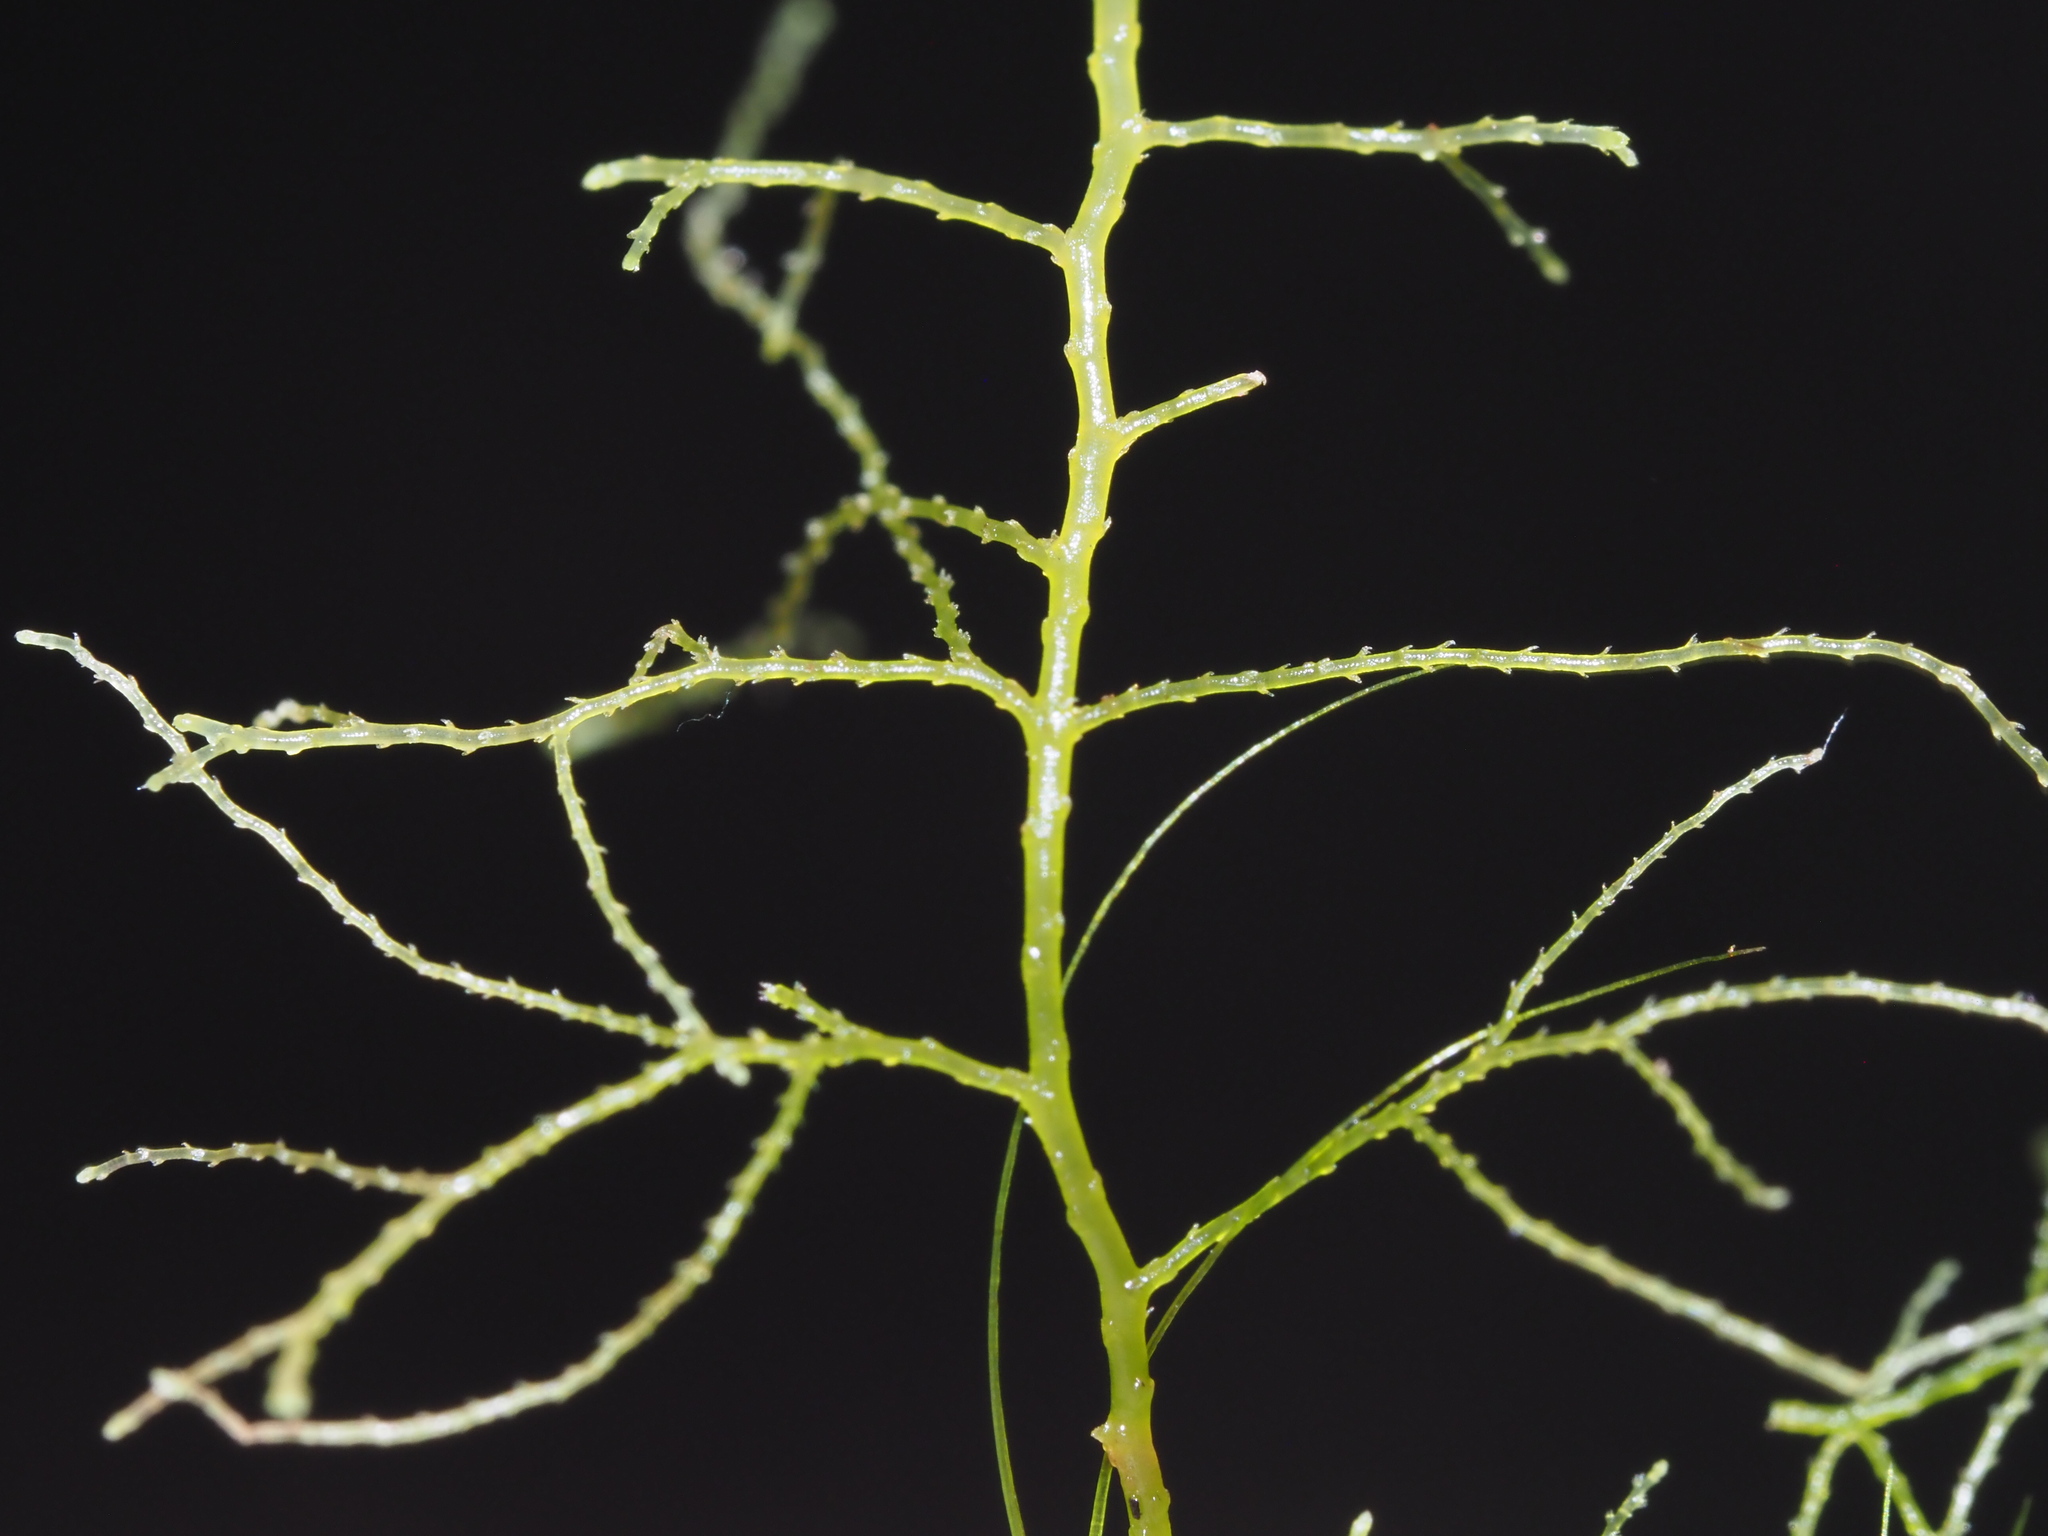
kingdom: Plantae
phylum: Marchantiophyta
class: Jungermanniopsida
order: Jungermanniales
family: Lepidoziaceae
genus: Lepidozia
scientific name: Lepidozia sandvicensis
